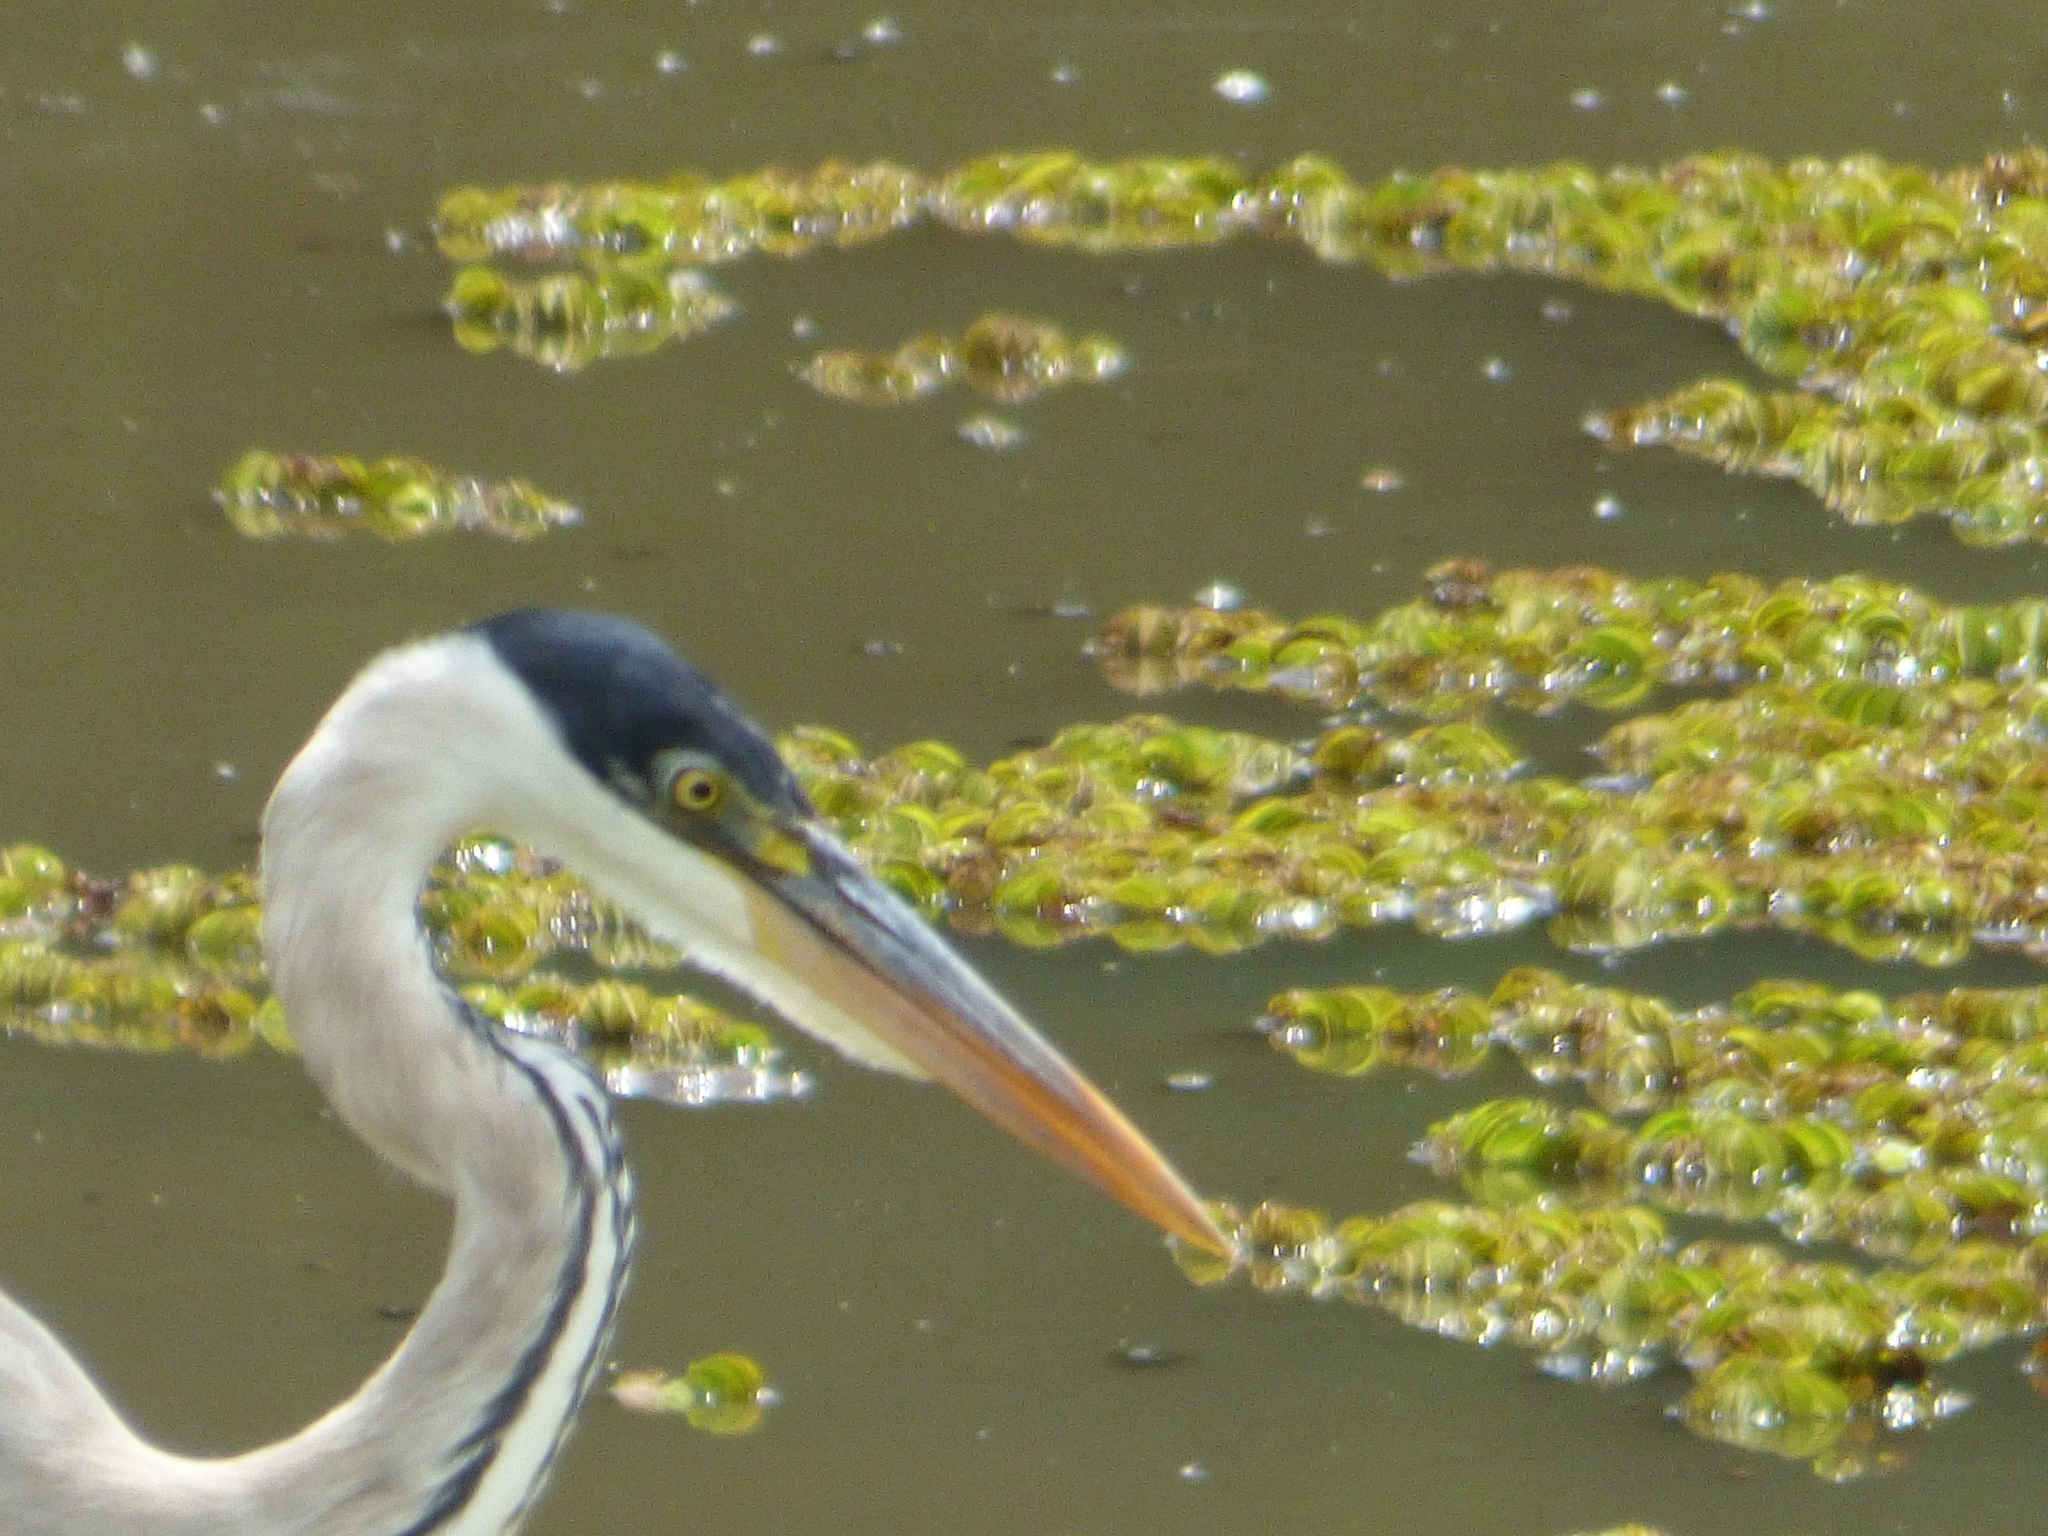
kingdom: Animalia
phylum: Chordata
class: Aves
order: Pelecaniformes
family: Ardeidae
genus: Ardea
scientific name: Ardea cocoi
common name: Cocoi heron
